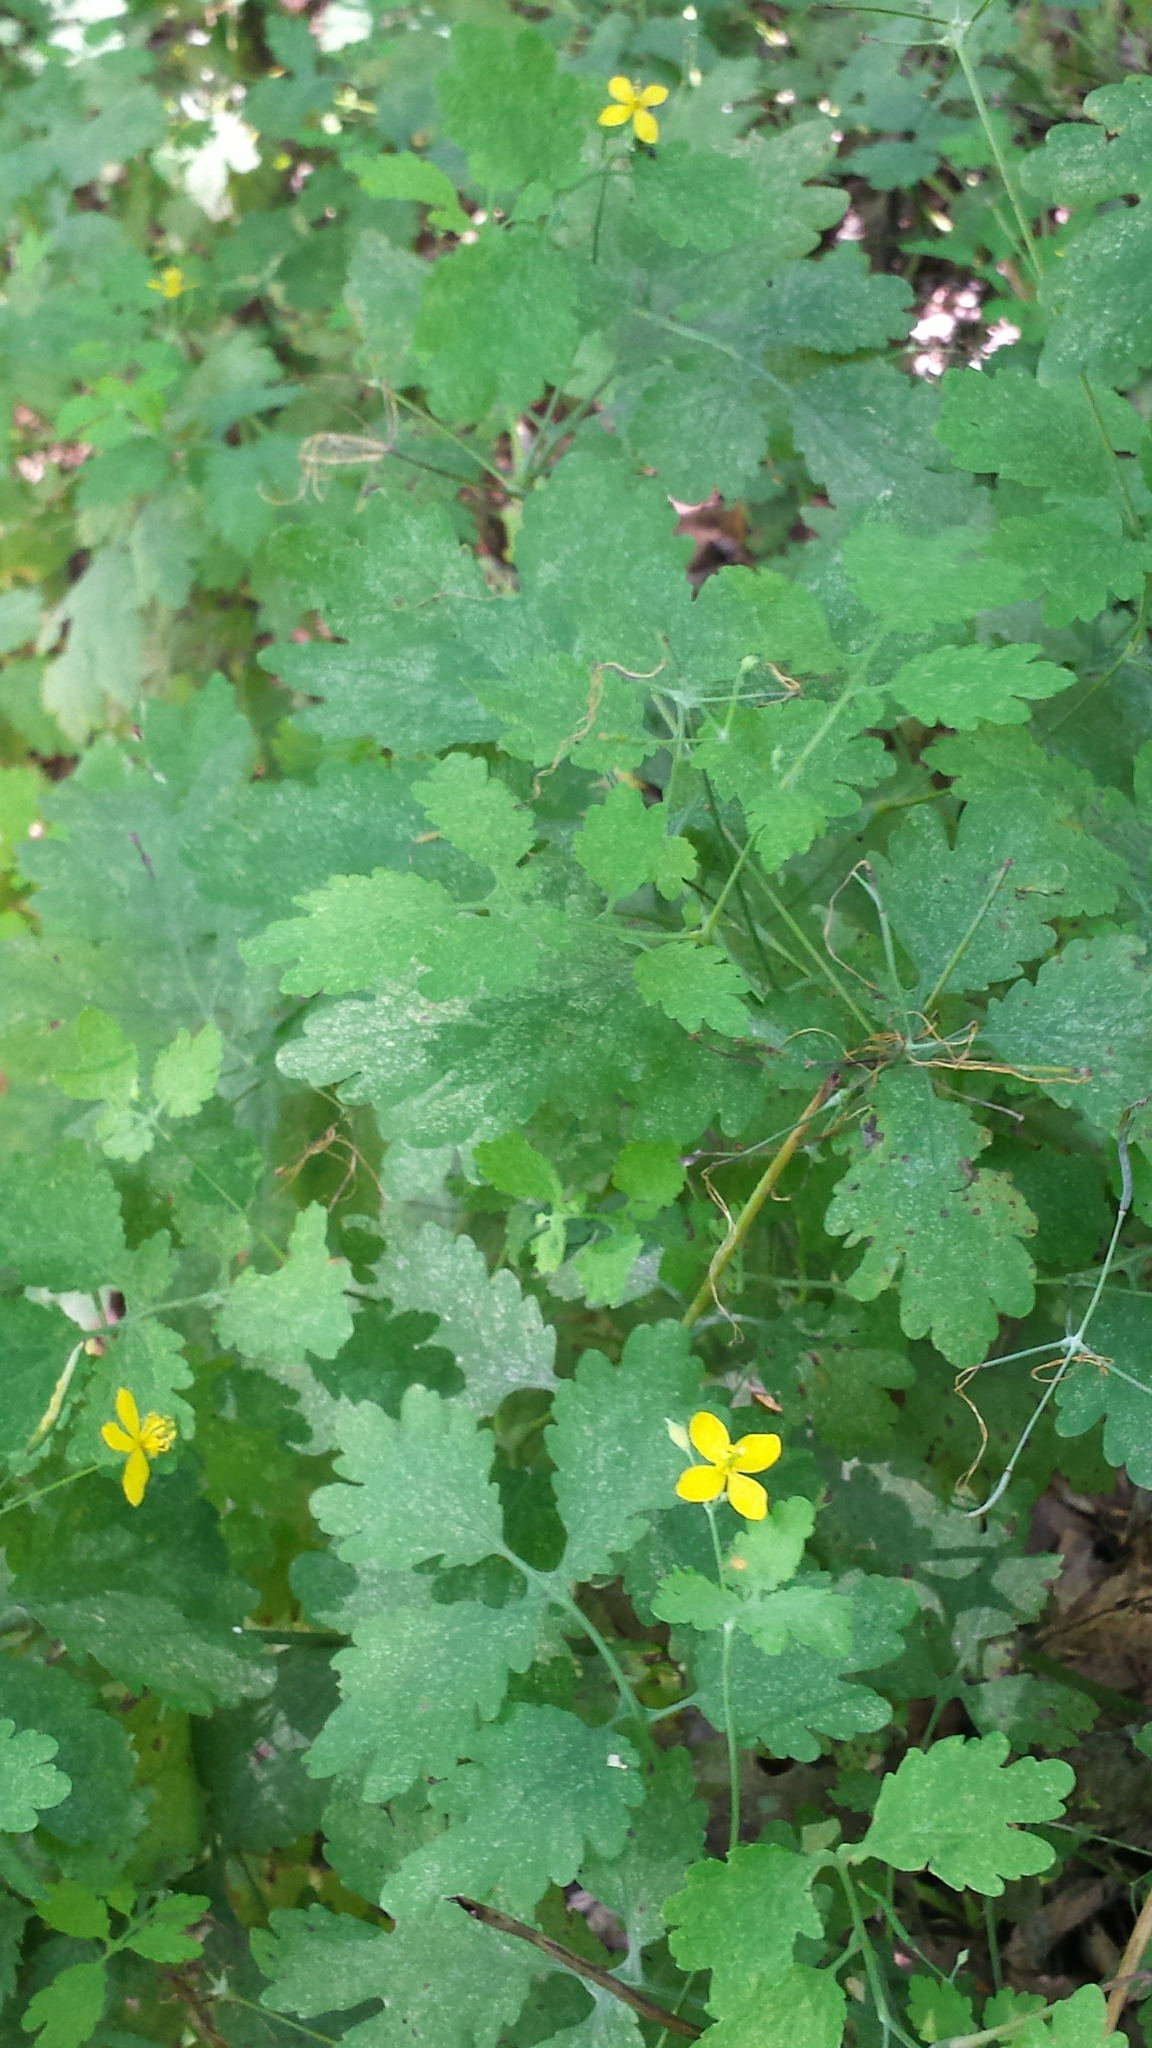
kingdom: Plantae
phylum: Tracheophyta
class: Magnoliopsida
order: Ranunculales
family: Papaveraceae
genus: Chelidonium
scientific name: Chelidonium majus
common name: Greater celandine
